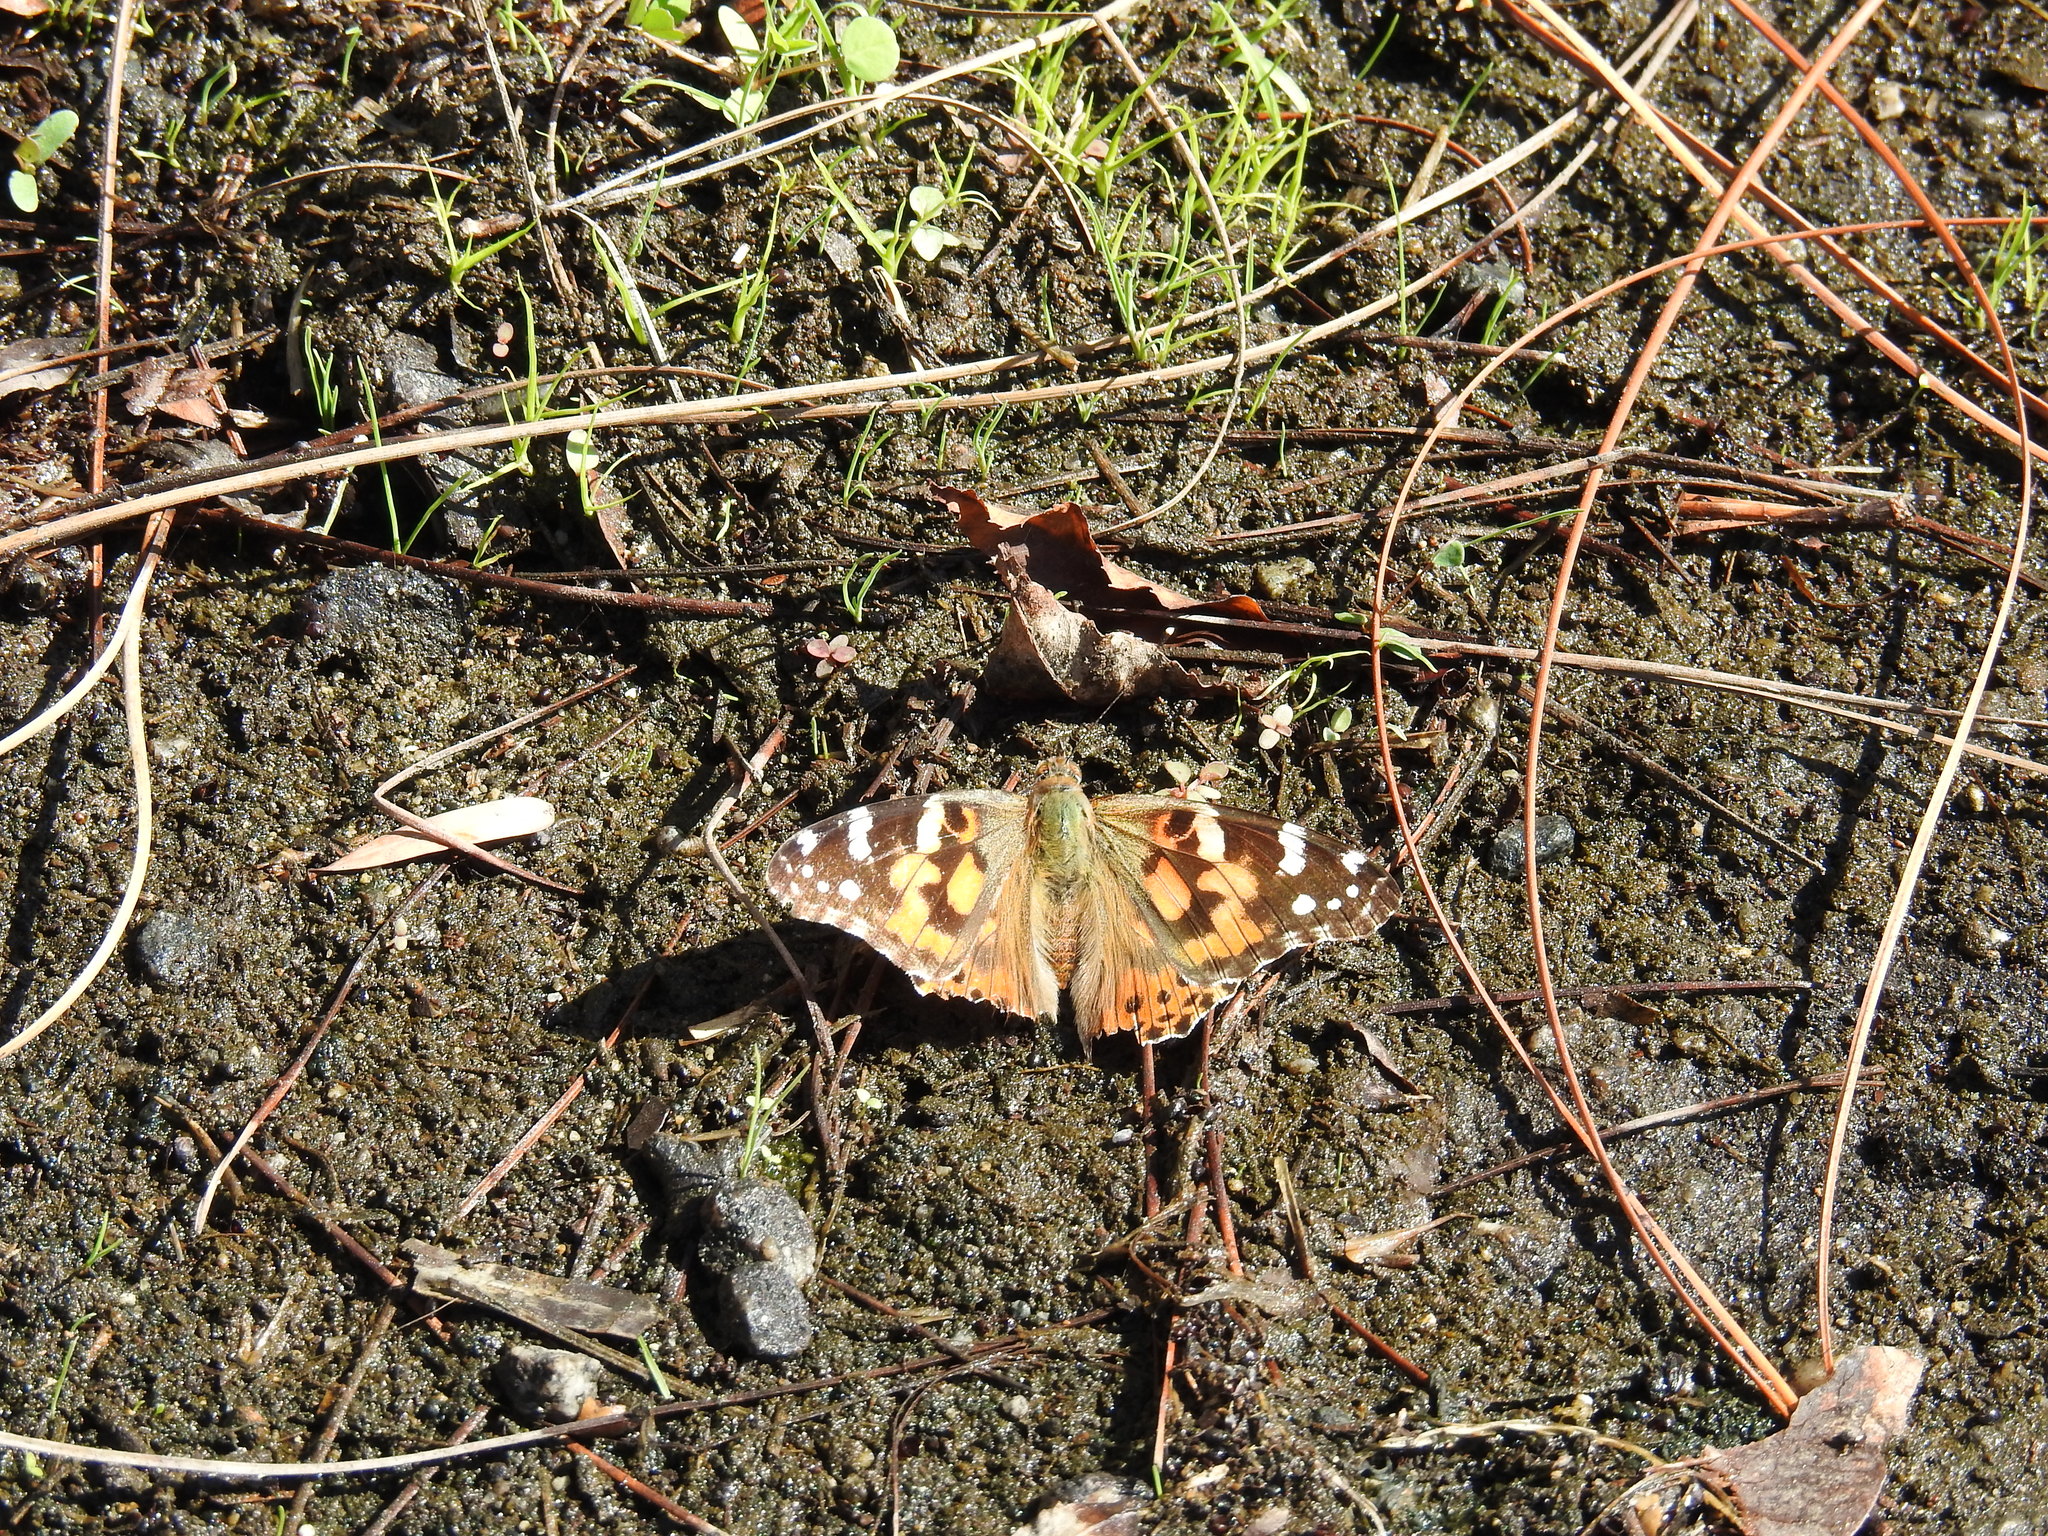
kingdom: Animalia
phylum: Arthropoda
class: Insecta
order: Lepidoptera
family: Nymphalidae
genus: Vanessa
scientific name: Vanessa cardui
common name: Painted lady
